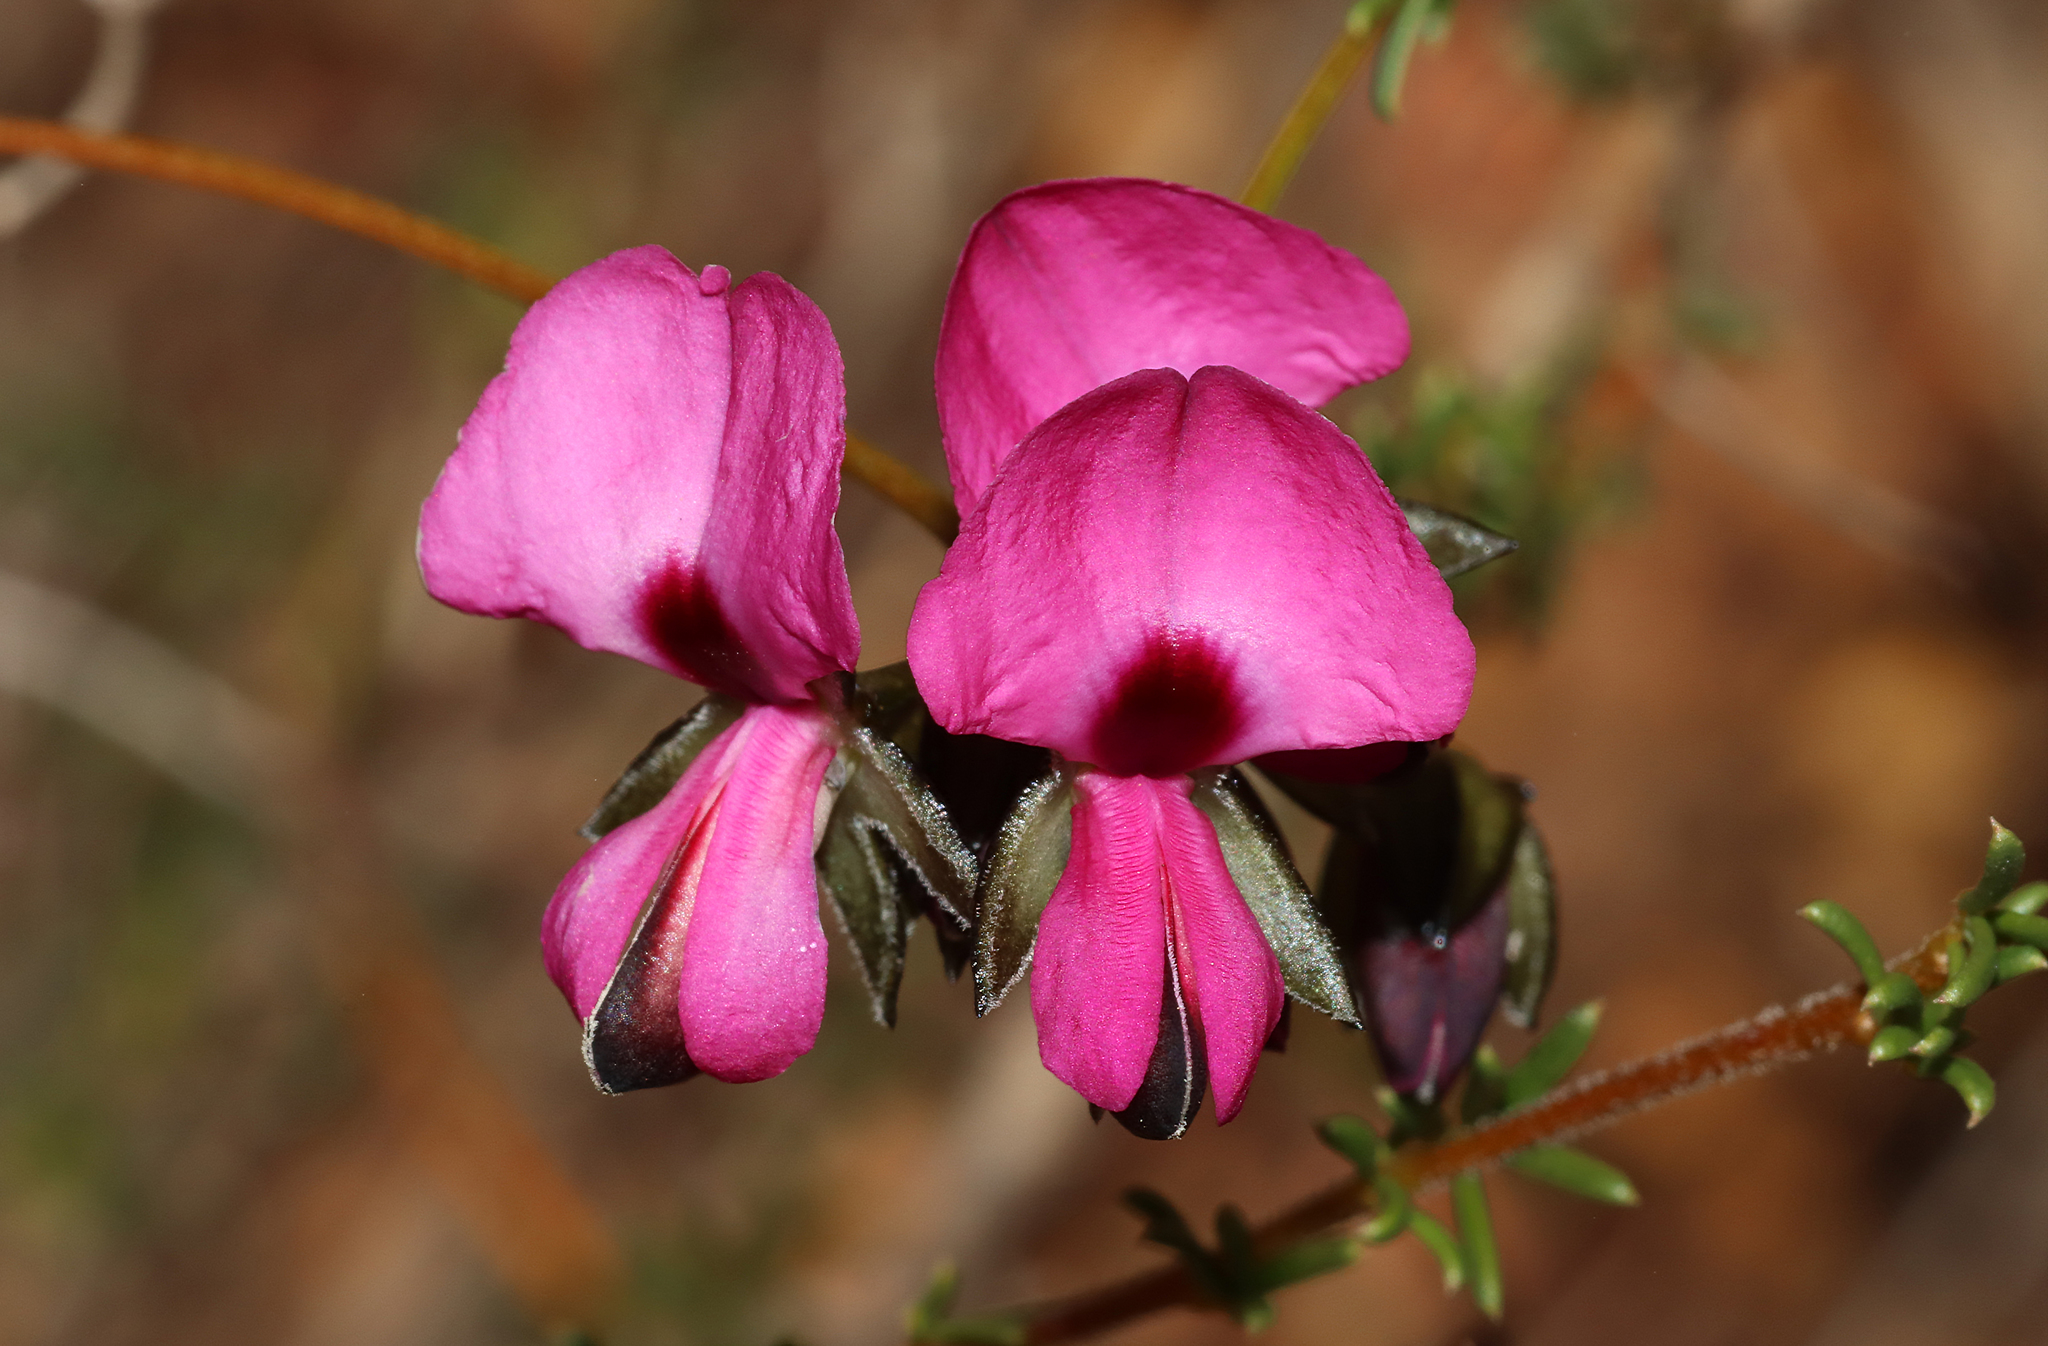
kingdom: Plantae
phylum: Tracheophyta
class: Magnoliopsida
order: Fabales
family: Fabaceae
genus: Gompholobium
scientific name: Gompholobium shuttleworthii
